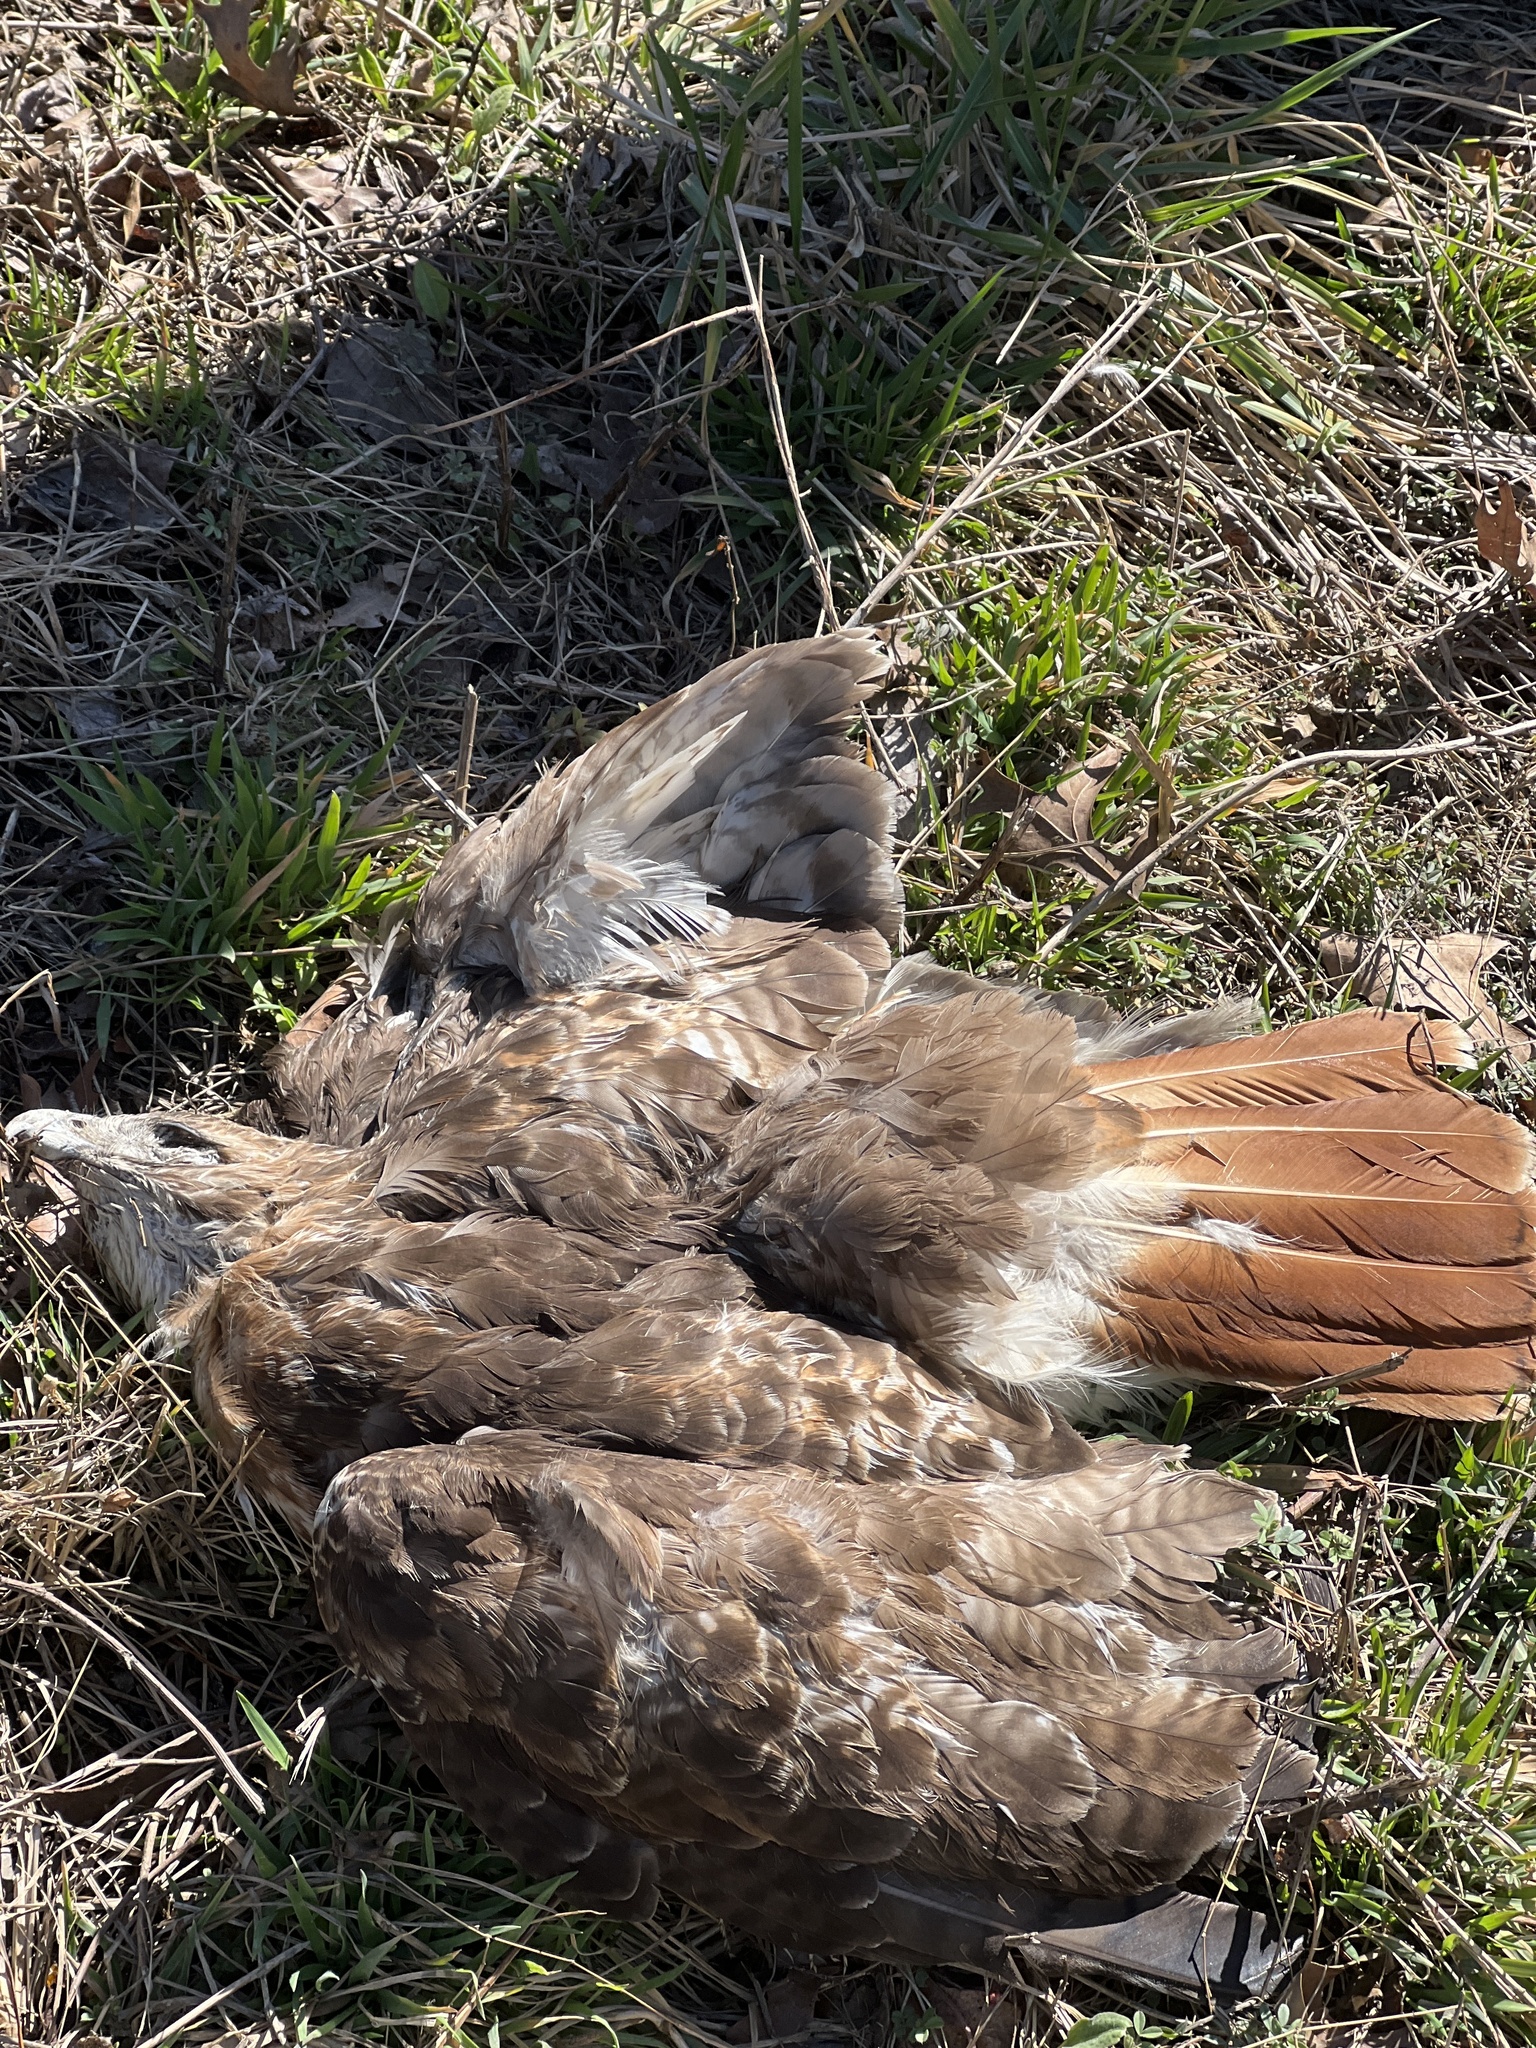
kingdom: Animalia
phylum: Chordata
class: Aves
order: Accipitriformes
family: Accipitridae
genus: Buteo
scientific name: Buteo jamaicensis
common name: Red-tailed hawk
